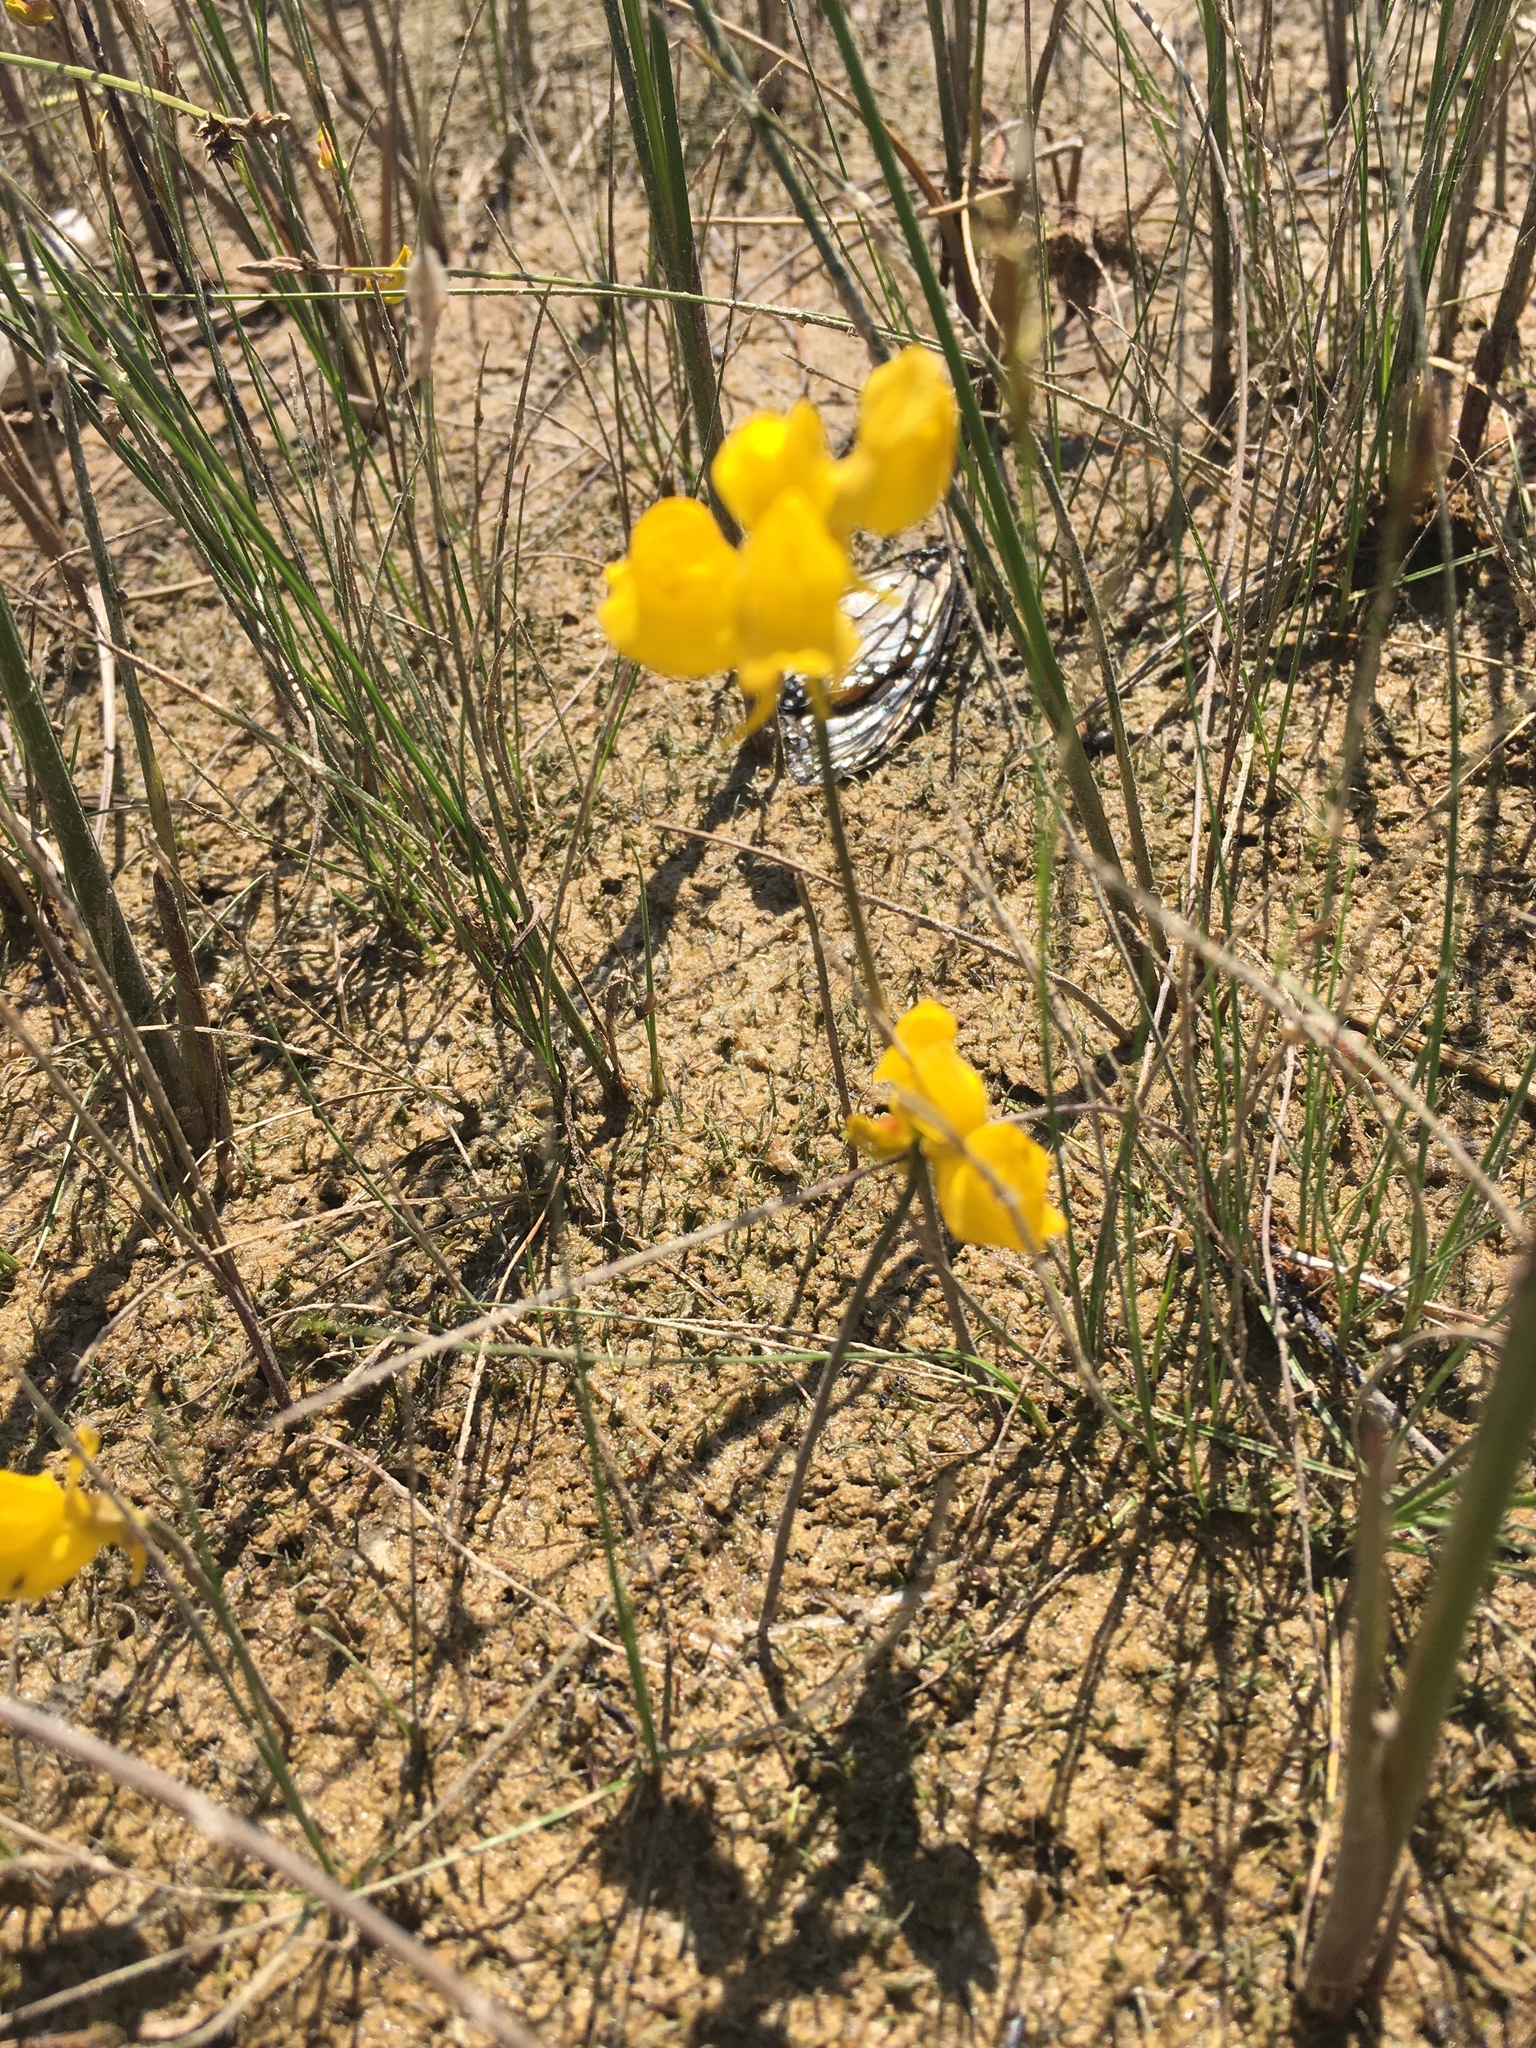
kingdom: Plantae
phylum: Tracheophyta
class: Magnoliopsida
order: Lamiales
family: Lentibulariaceae
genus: Utricularia
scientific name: Utricularia cornuta
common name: Horned bladderwort
